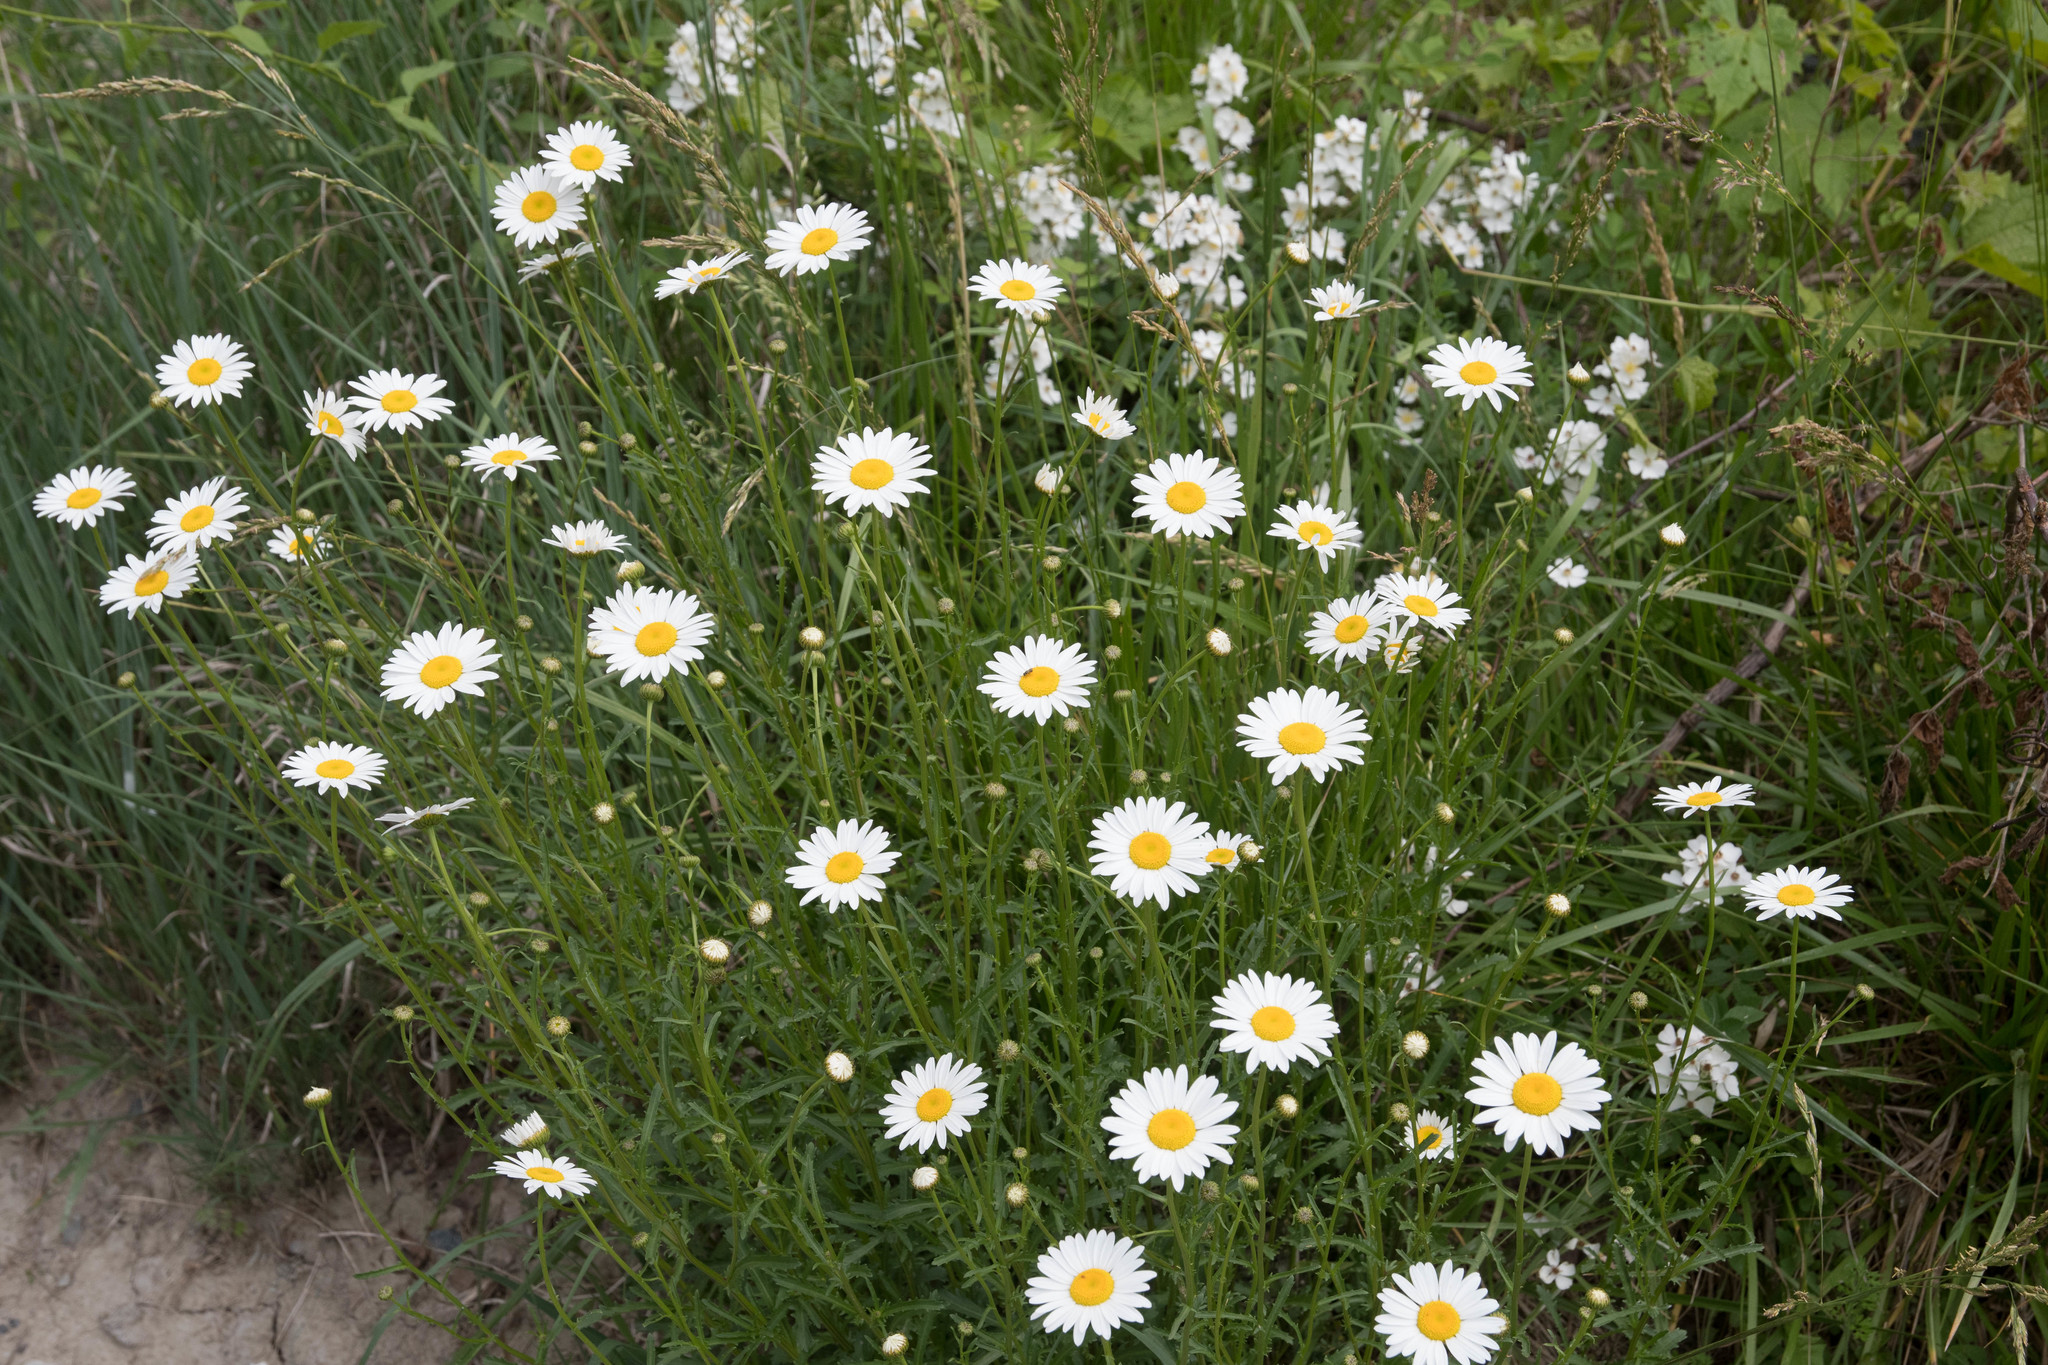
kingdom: Plantae
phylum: Tracheophyta
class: Magnoliopsida
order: Asterales
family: Asteraceae
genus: Leucanthemum
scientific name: Leucanthemum vulgare
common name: Oxeye daisy
